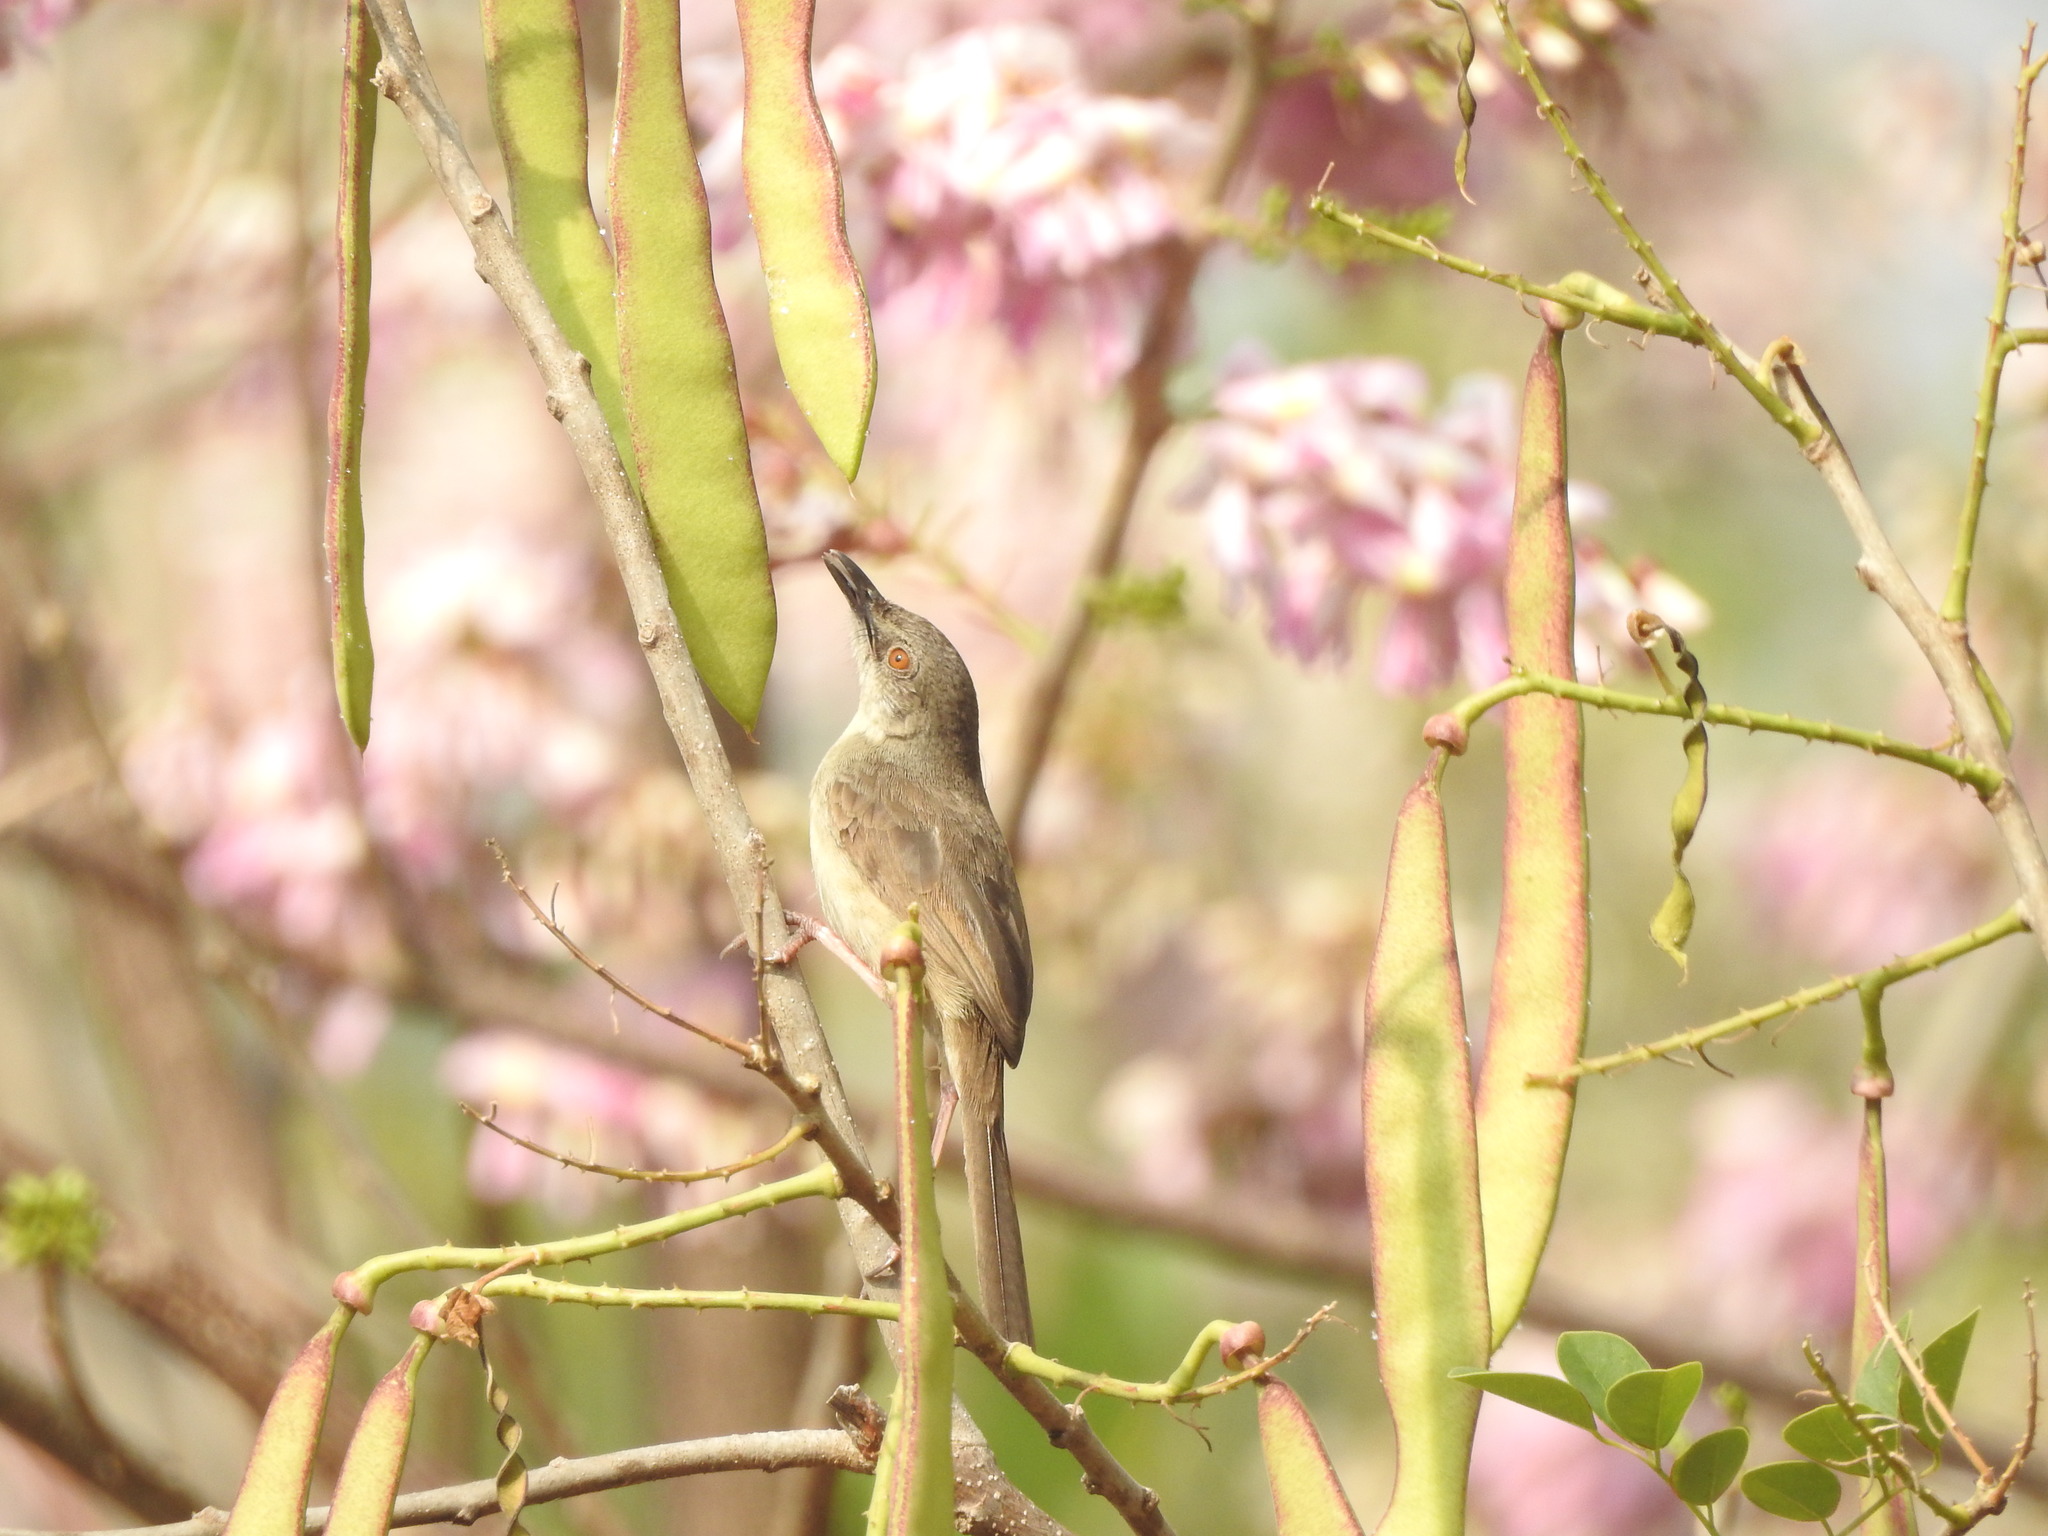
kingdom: Animalia
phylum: Chordata
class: Aves
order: Passeriformes
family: Cisticolidae
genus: Prinia
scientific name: Prinia sylvatica
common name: Jungle prinia
